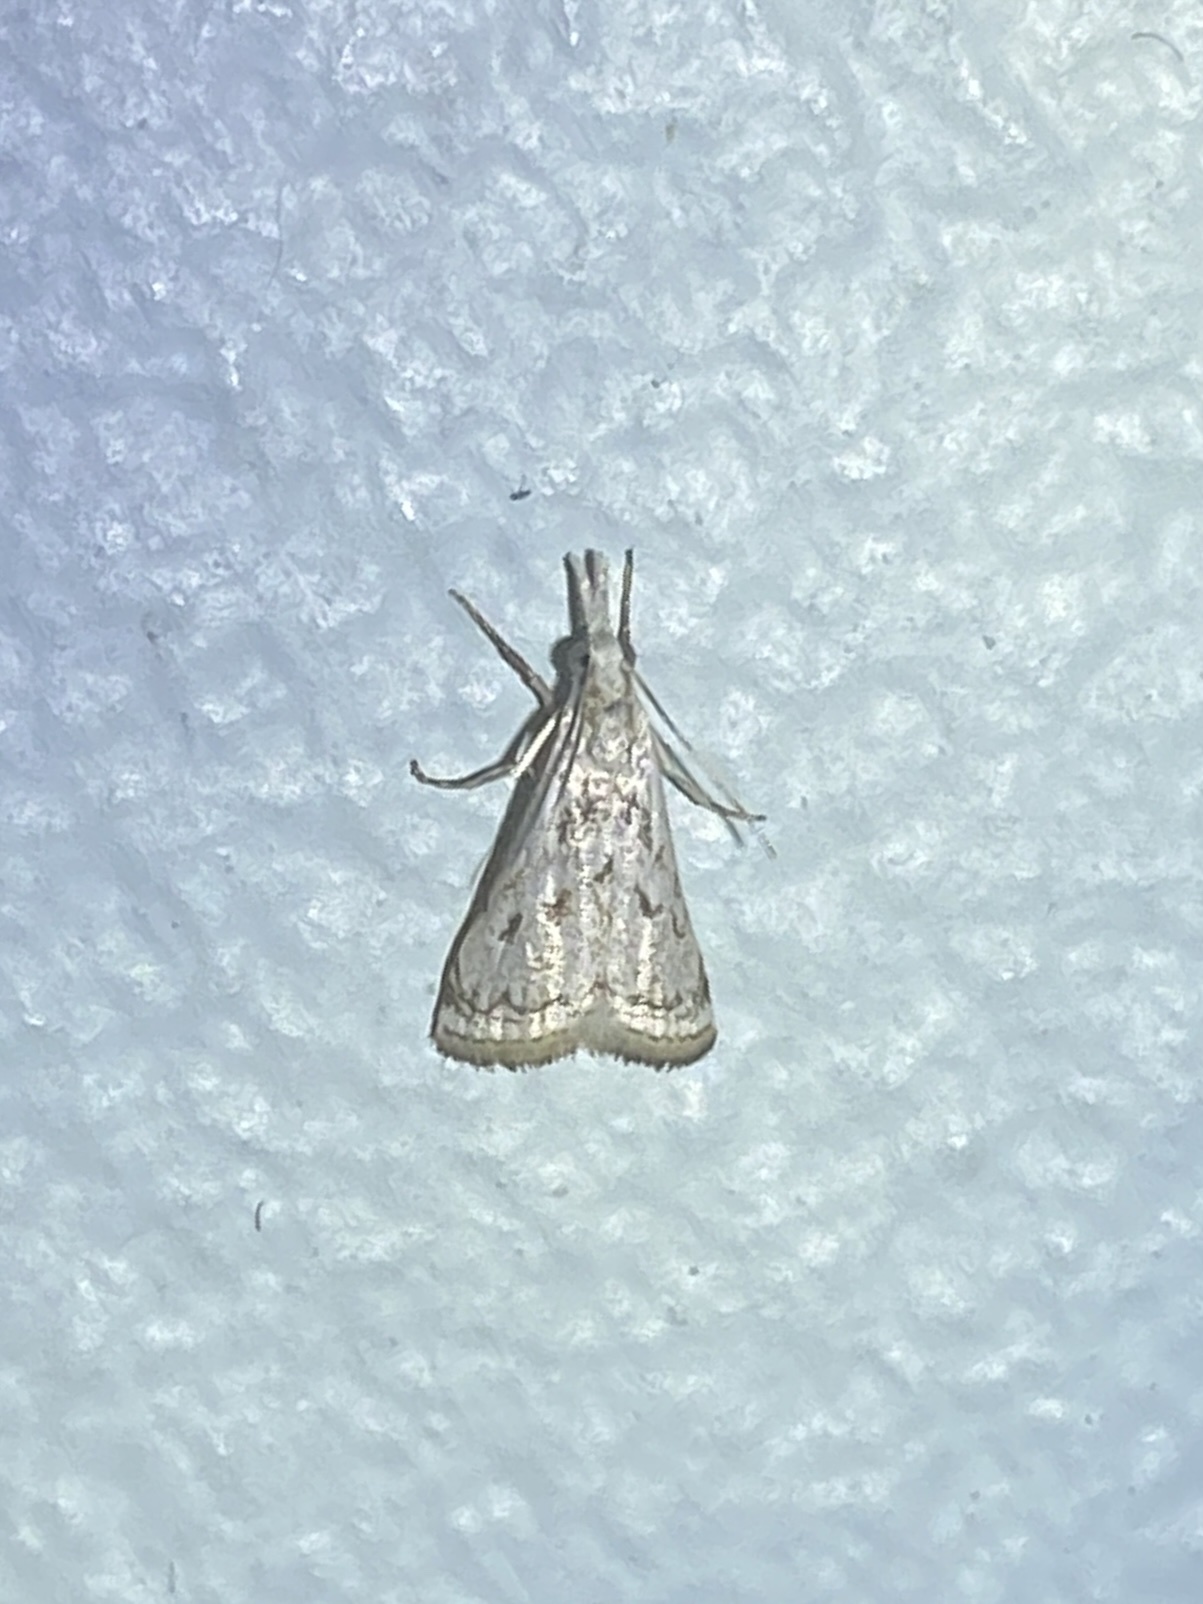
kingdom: Animalia
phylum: Arthropoda
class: Insecta
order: Lepidoptera
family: Crambidae
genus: Microcrambus
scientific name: Microcrambus elpenor
